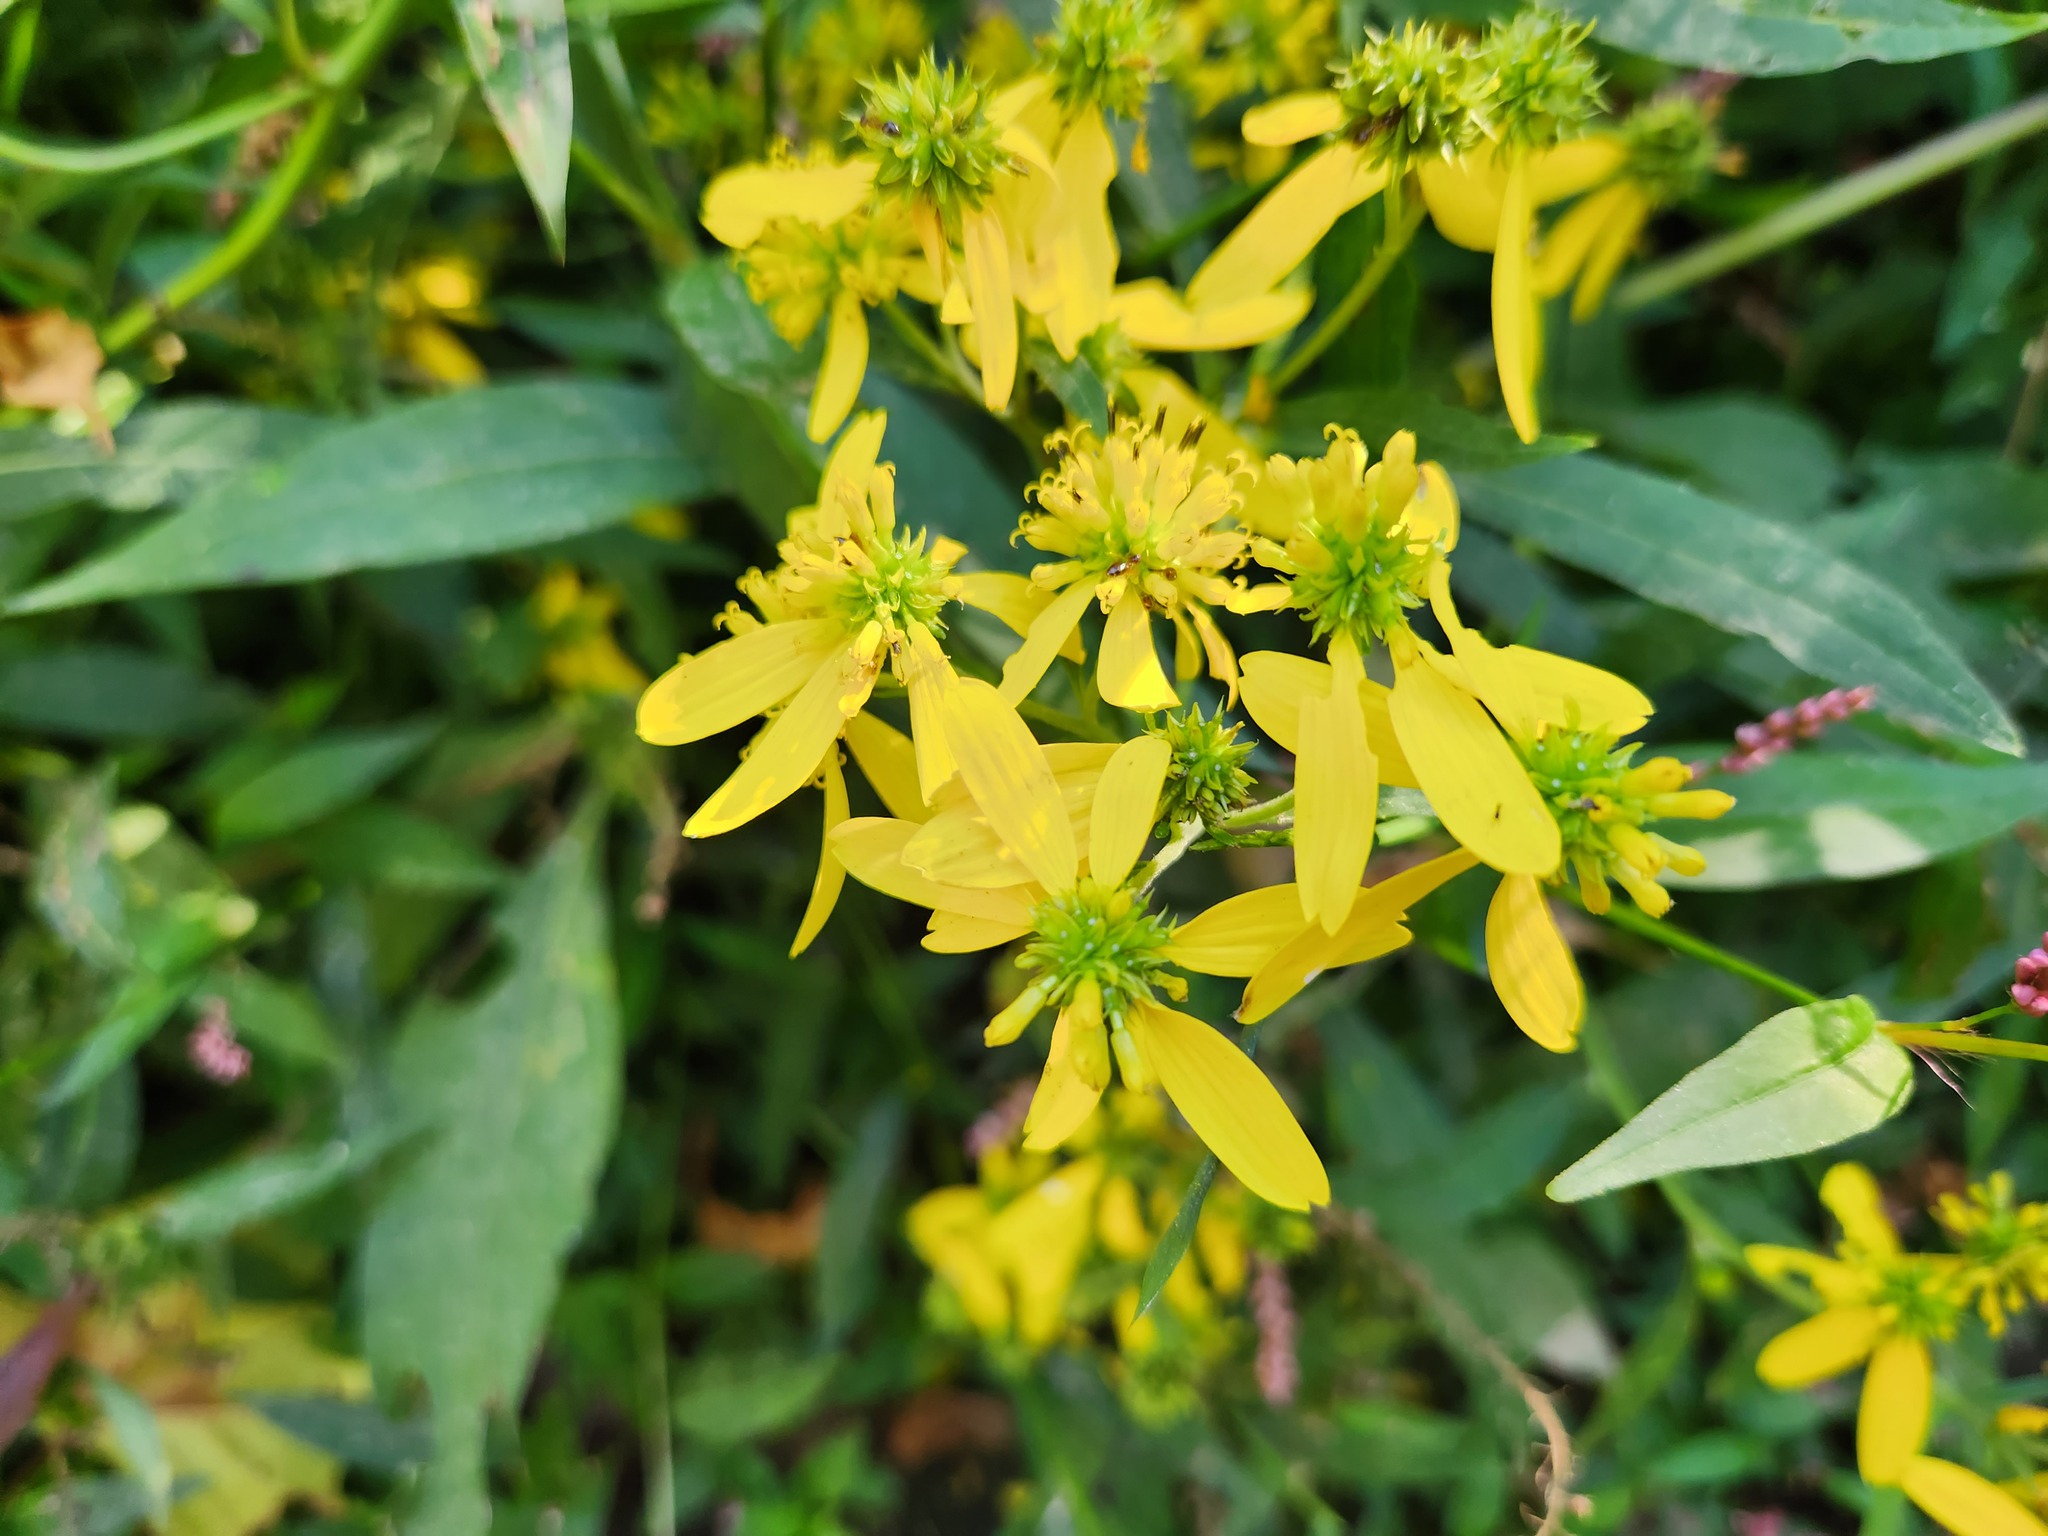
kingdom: Plantae
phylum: Tracheophyta
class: Magnoliopsida
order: Asterales
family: Asteraceae
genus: Verbesina
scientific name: Verbesina alternifolia
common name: Wingstem
